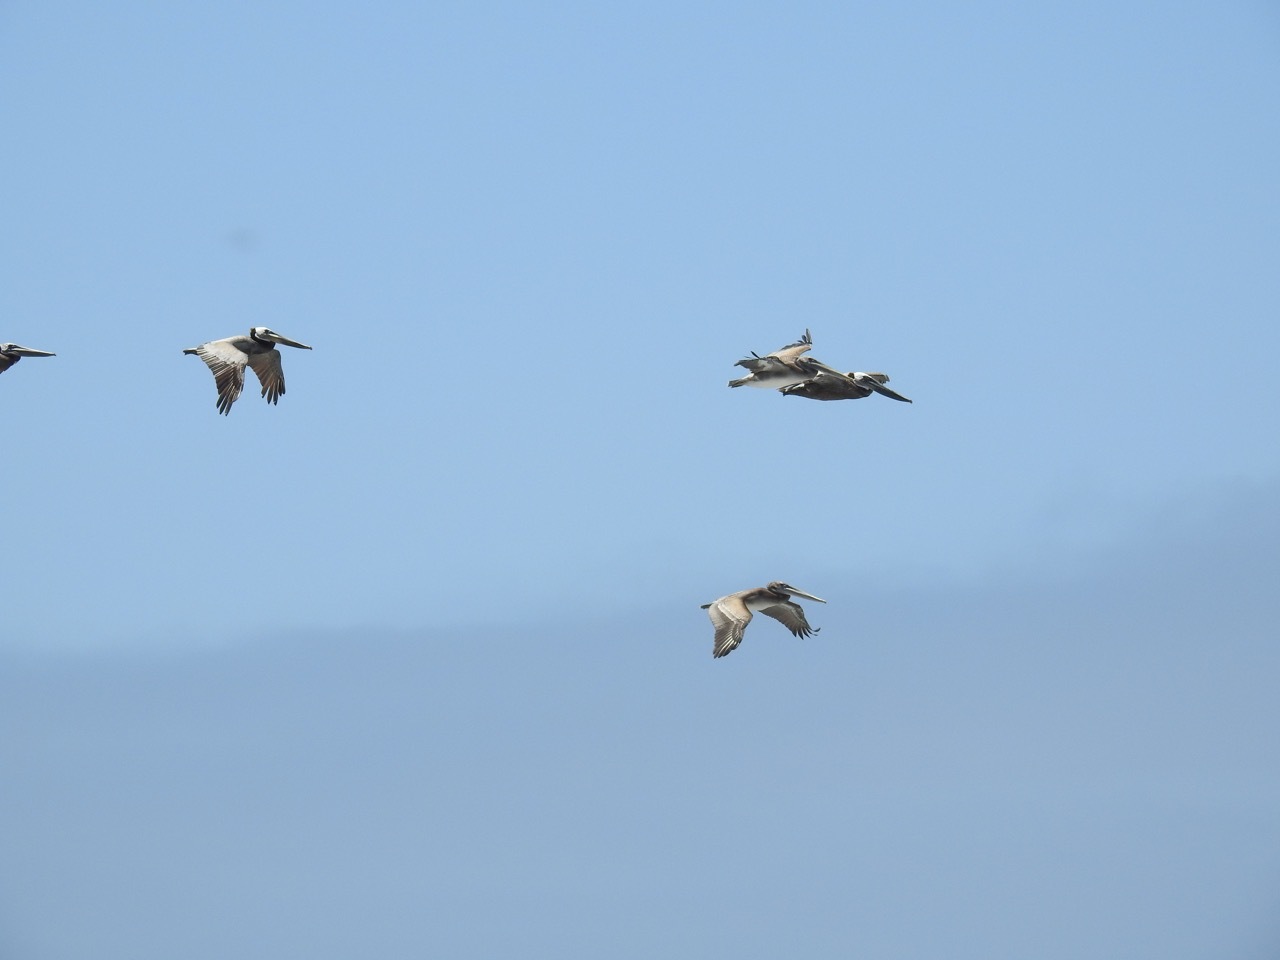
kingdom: Animalia
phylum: Chordata
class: Aves
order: Pelecaniformes
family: Pelecanidae
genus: Pelecanus
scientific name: Pelecanus occidentalis
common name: Brown pelican
